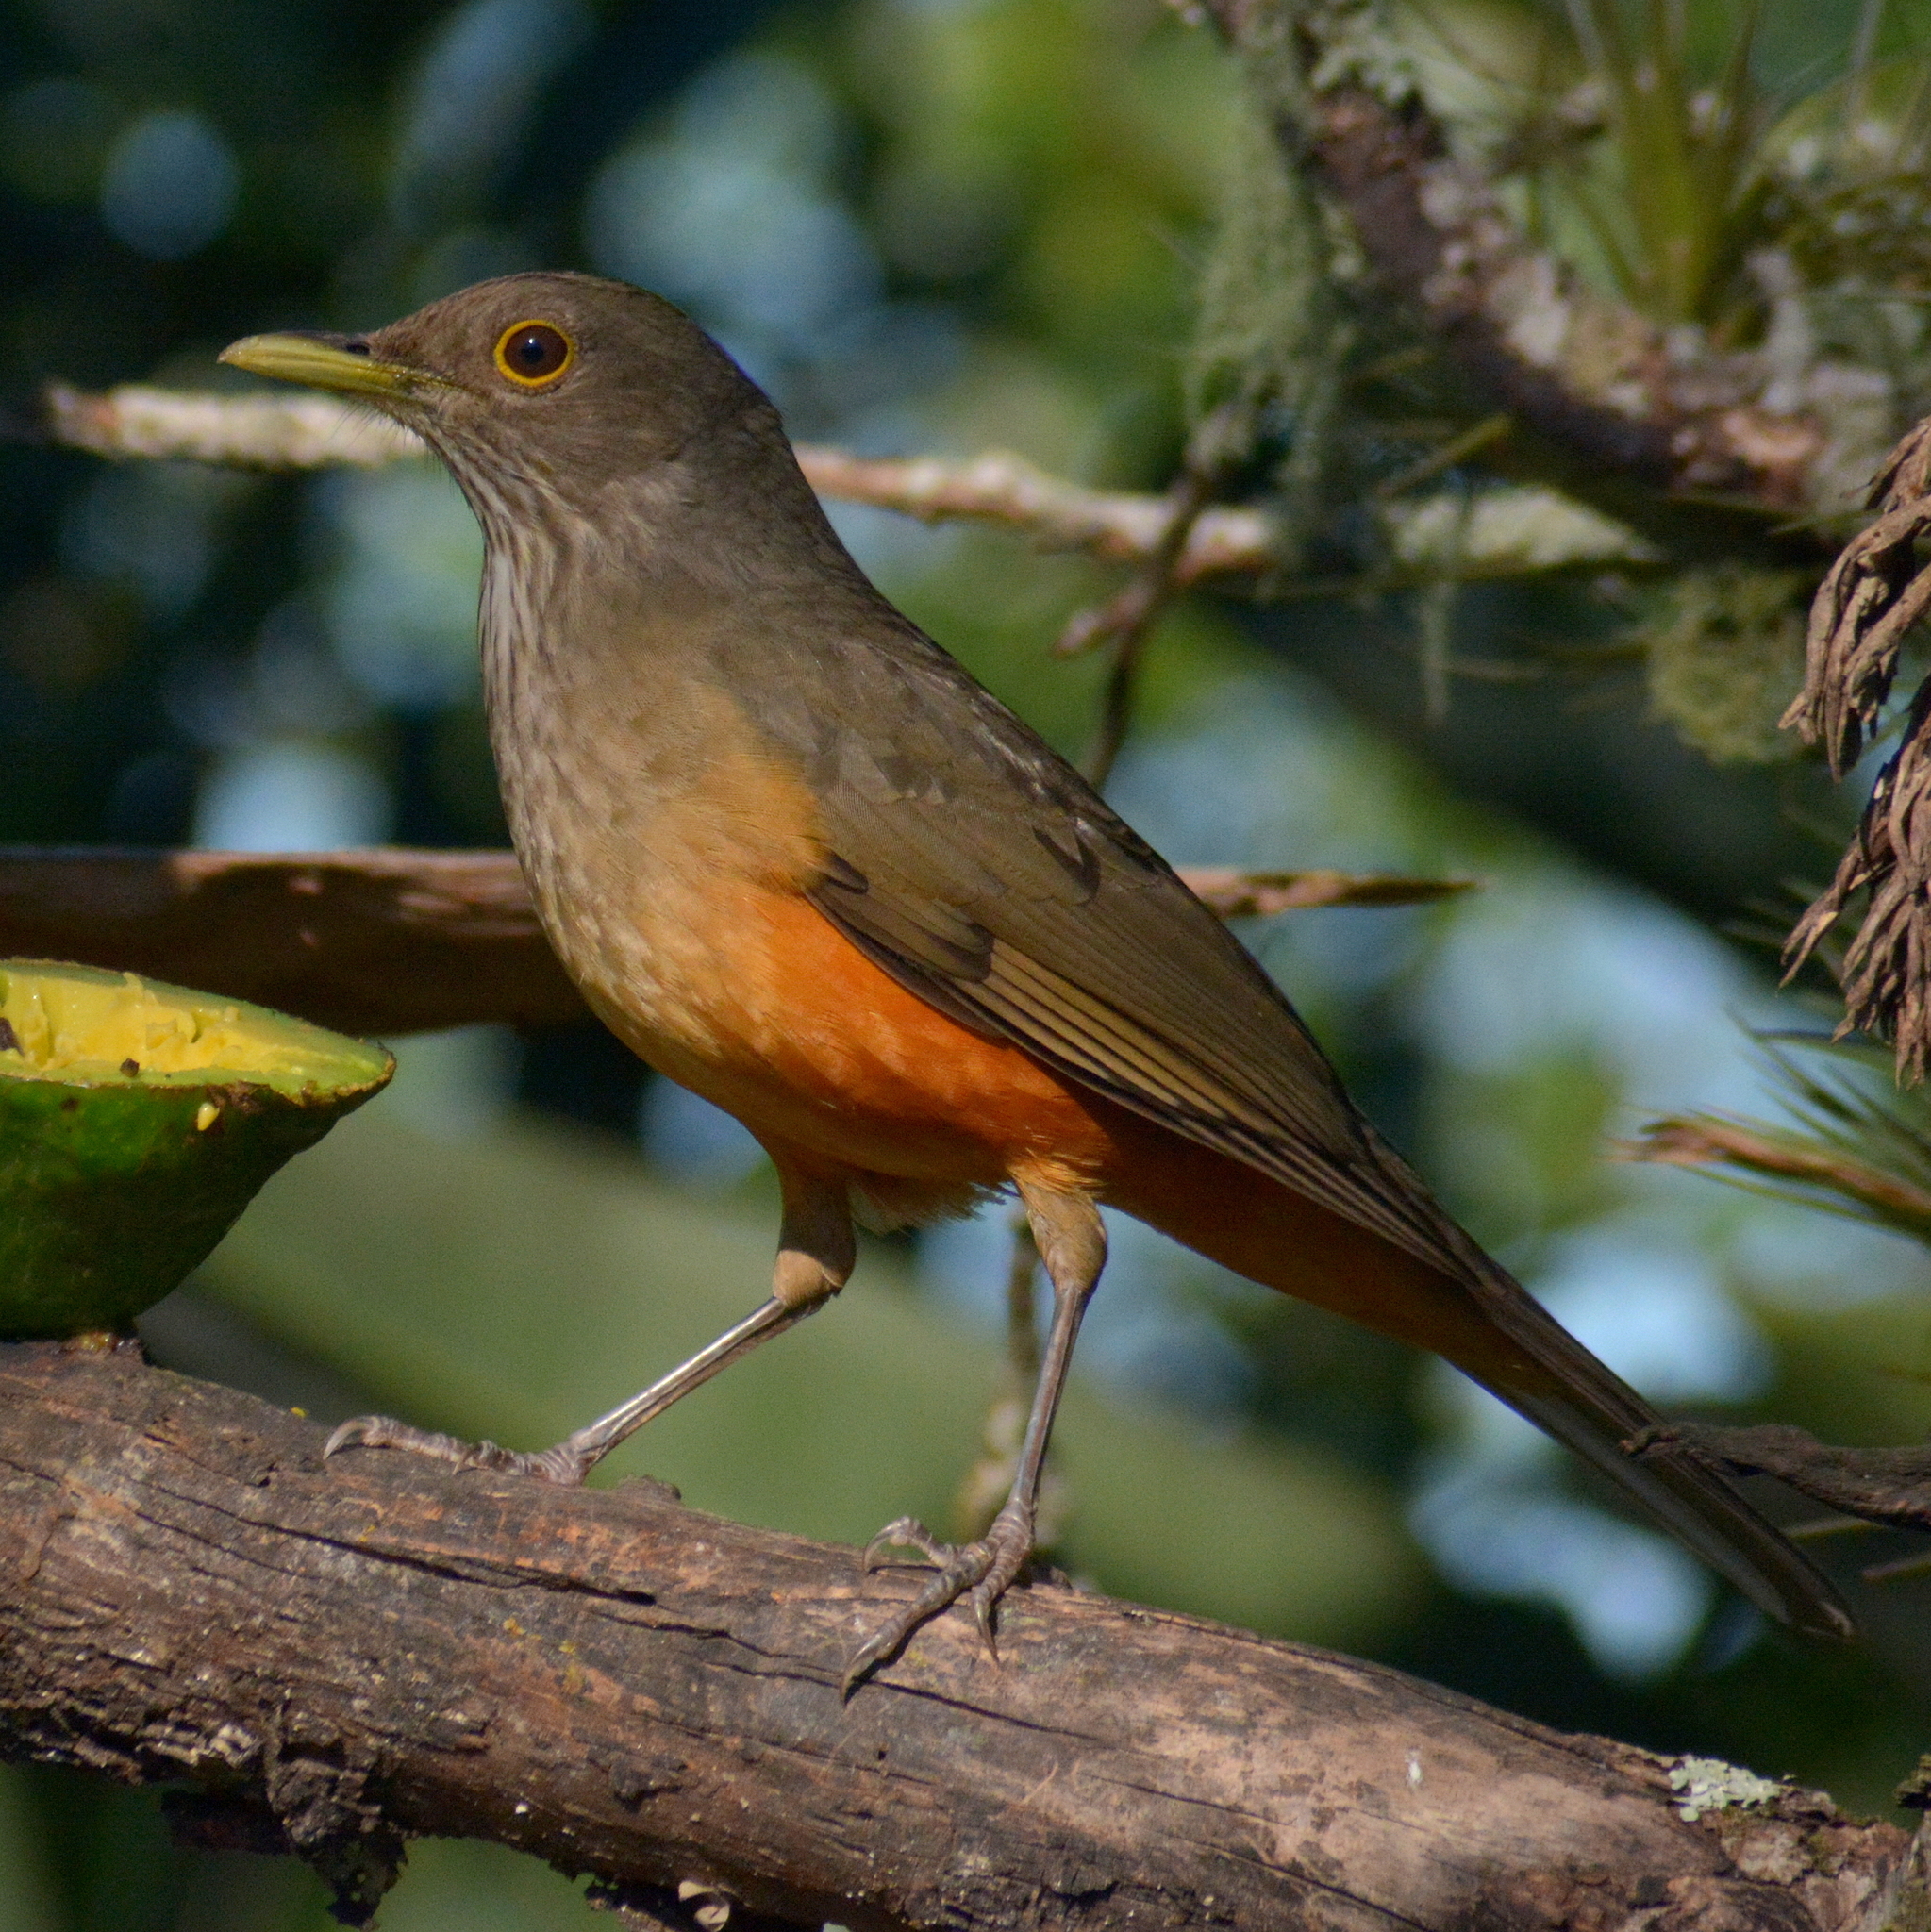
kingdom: Animalia
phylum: Chordata
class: Aves
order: Passeriformes
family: Turdidae
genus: Turdus
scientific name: Turdus rufiventris
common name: Rufous-bellied thrush
